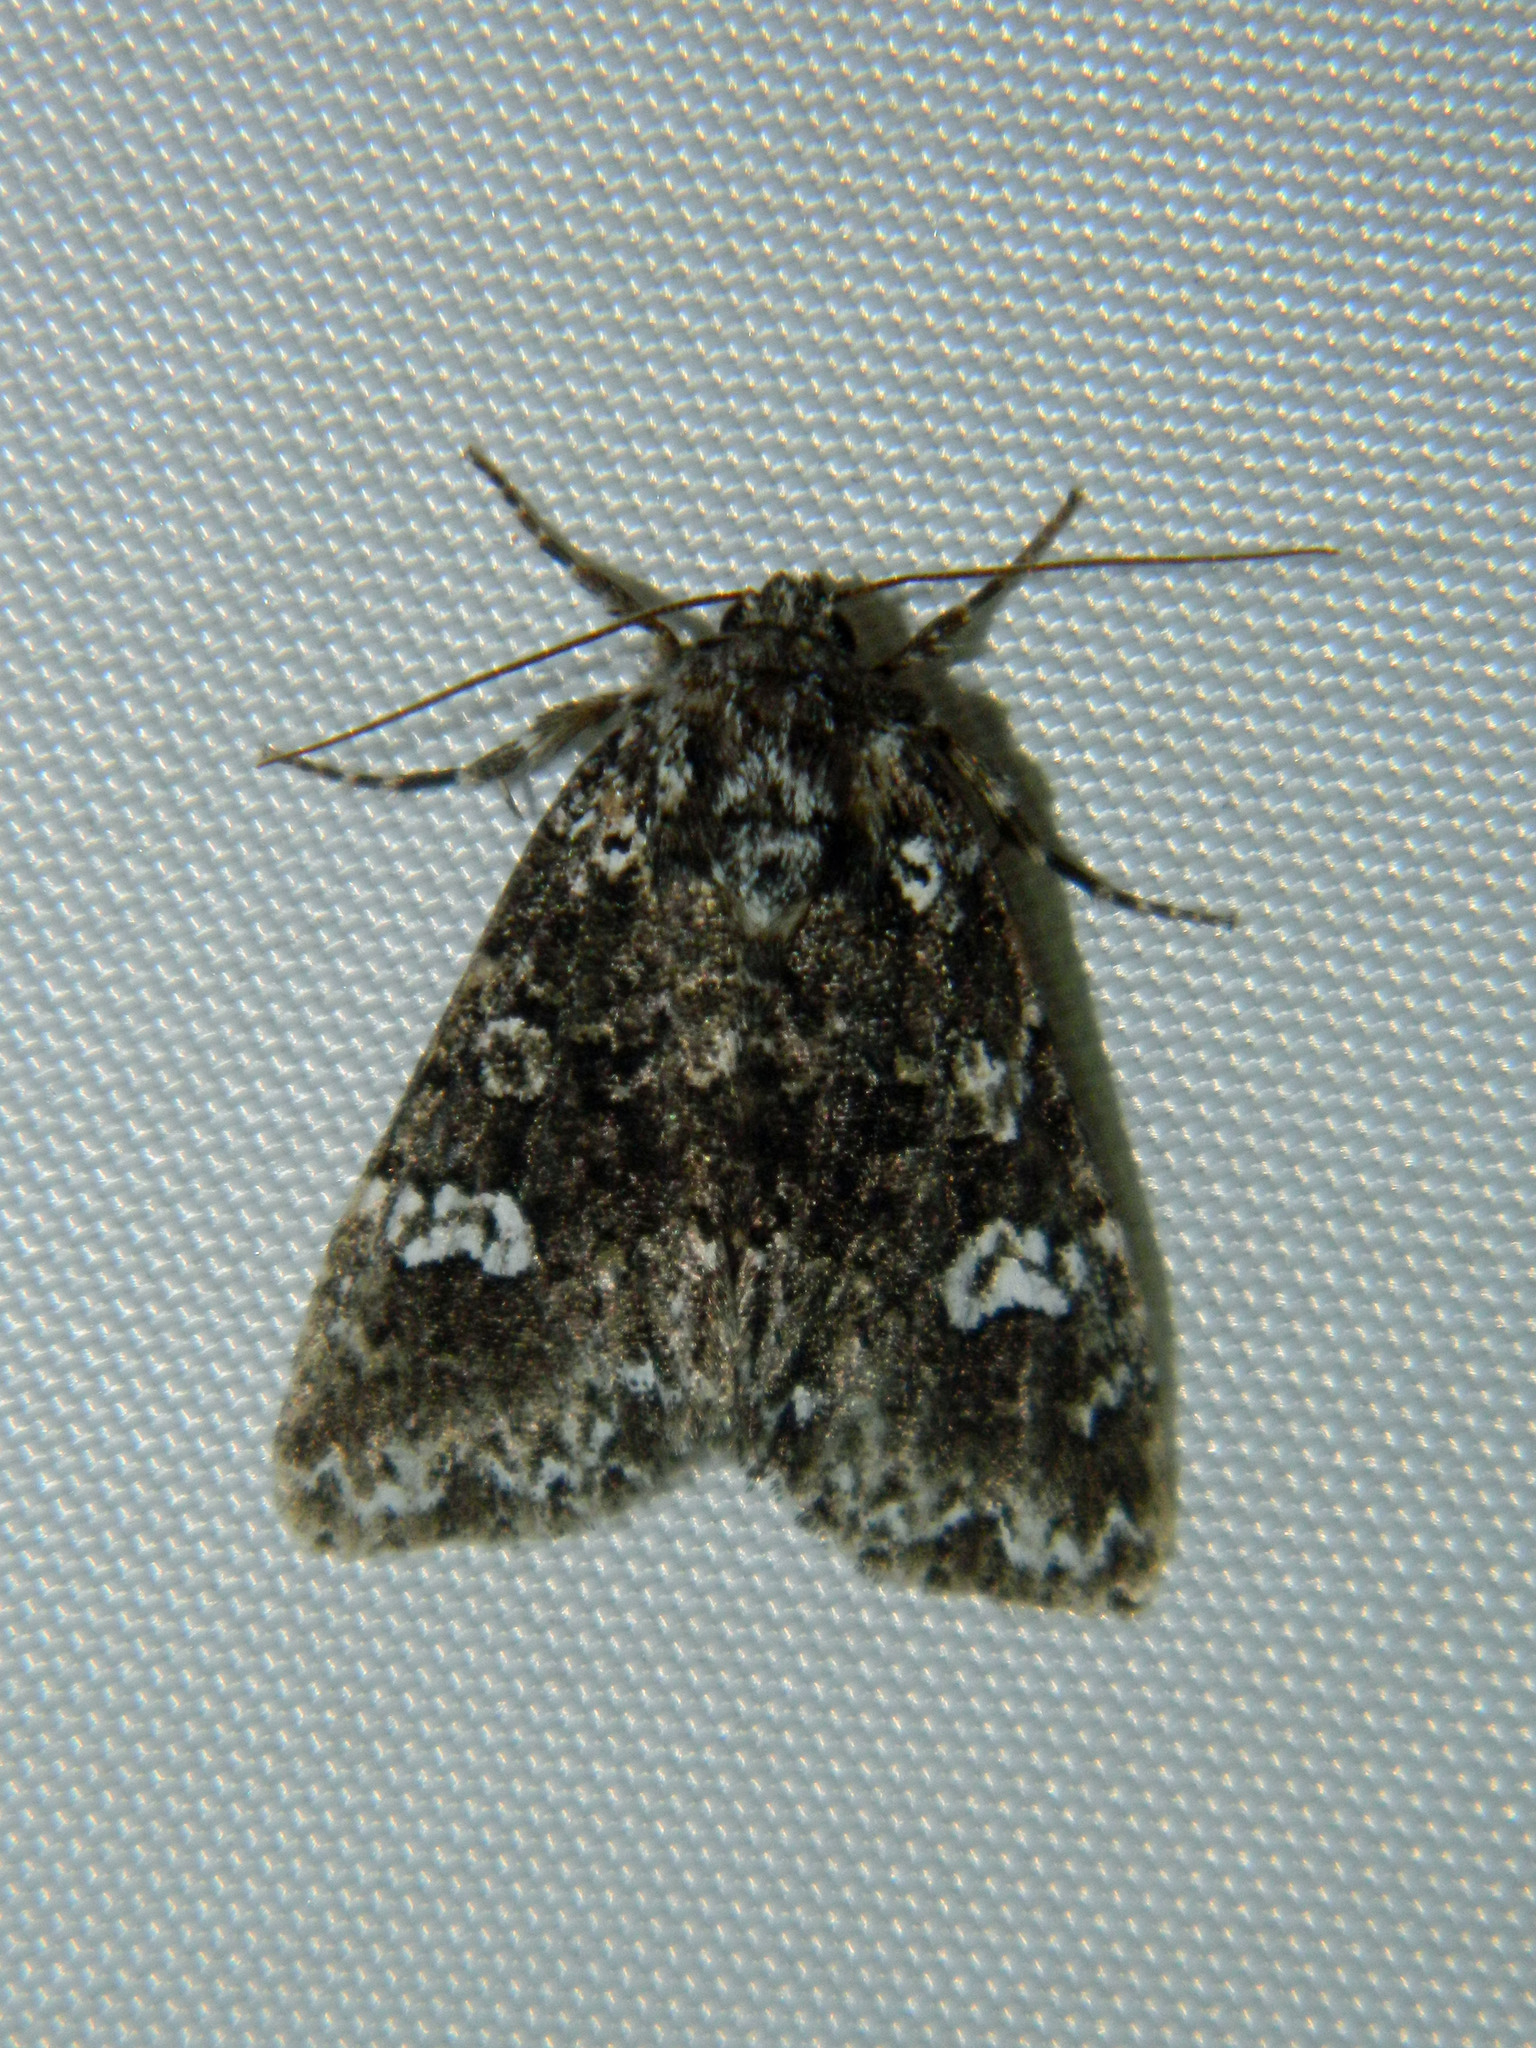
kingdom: Animalia
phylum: Arthropoda
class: Insecta
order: Lepidoptera
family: Noctuidae
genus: Melanchra
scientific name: Melanchra adjuncta
